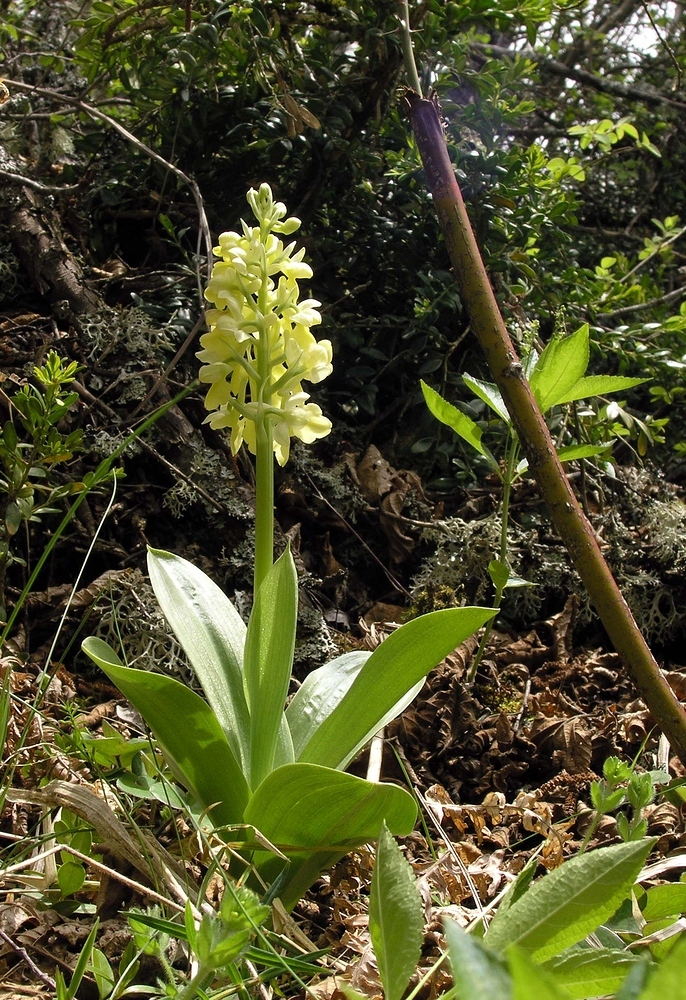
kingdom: Plantae
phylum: Tracheophyta
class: Liliopsida
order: Asparagales
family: Orchidaceae
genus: Orchis
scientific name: Orchis pallens
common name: Pale-flowered orchid
